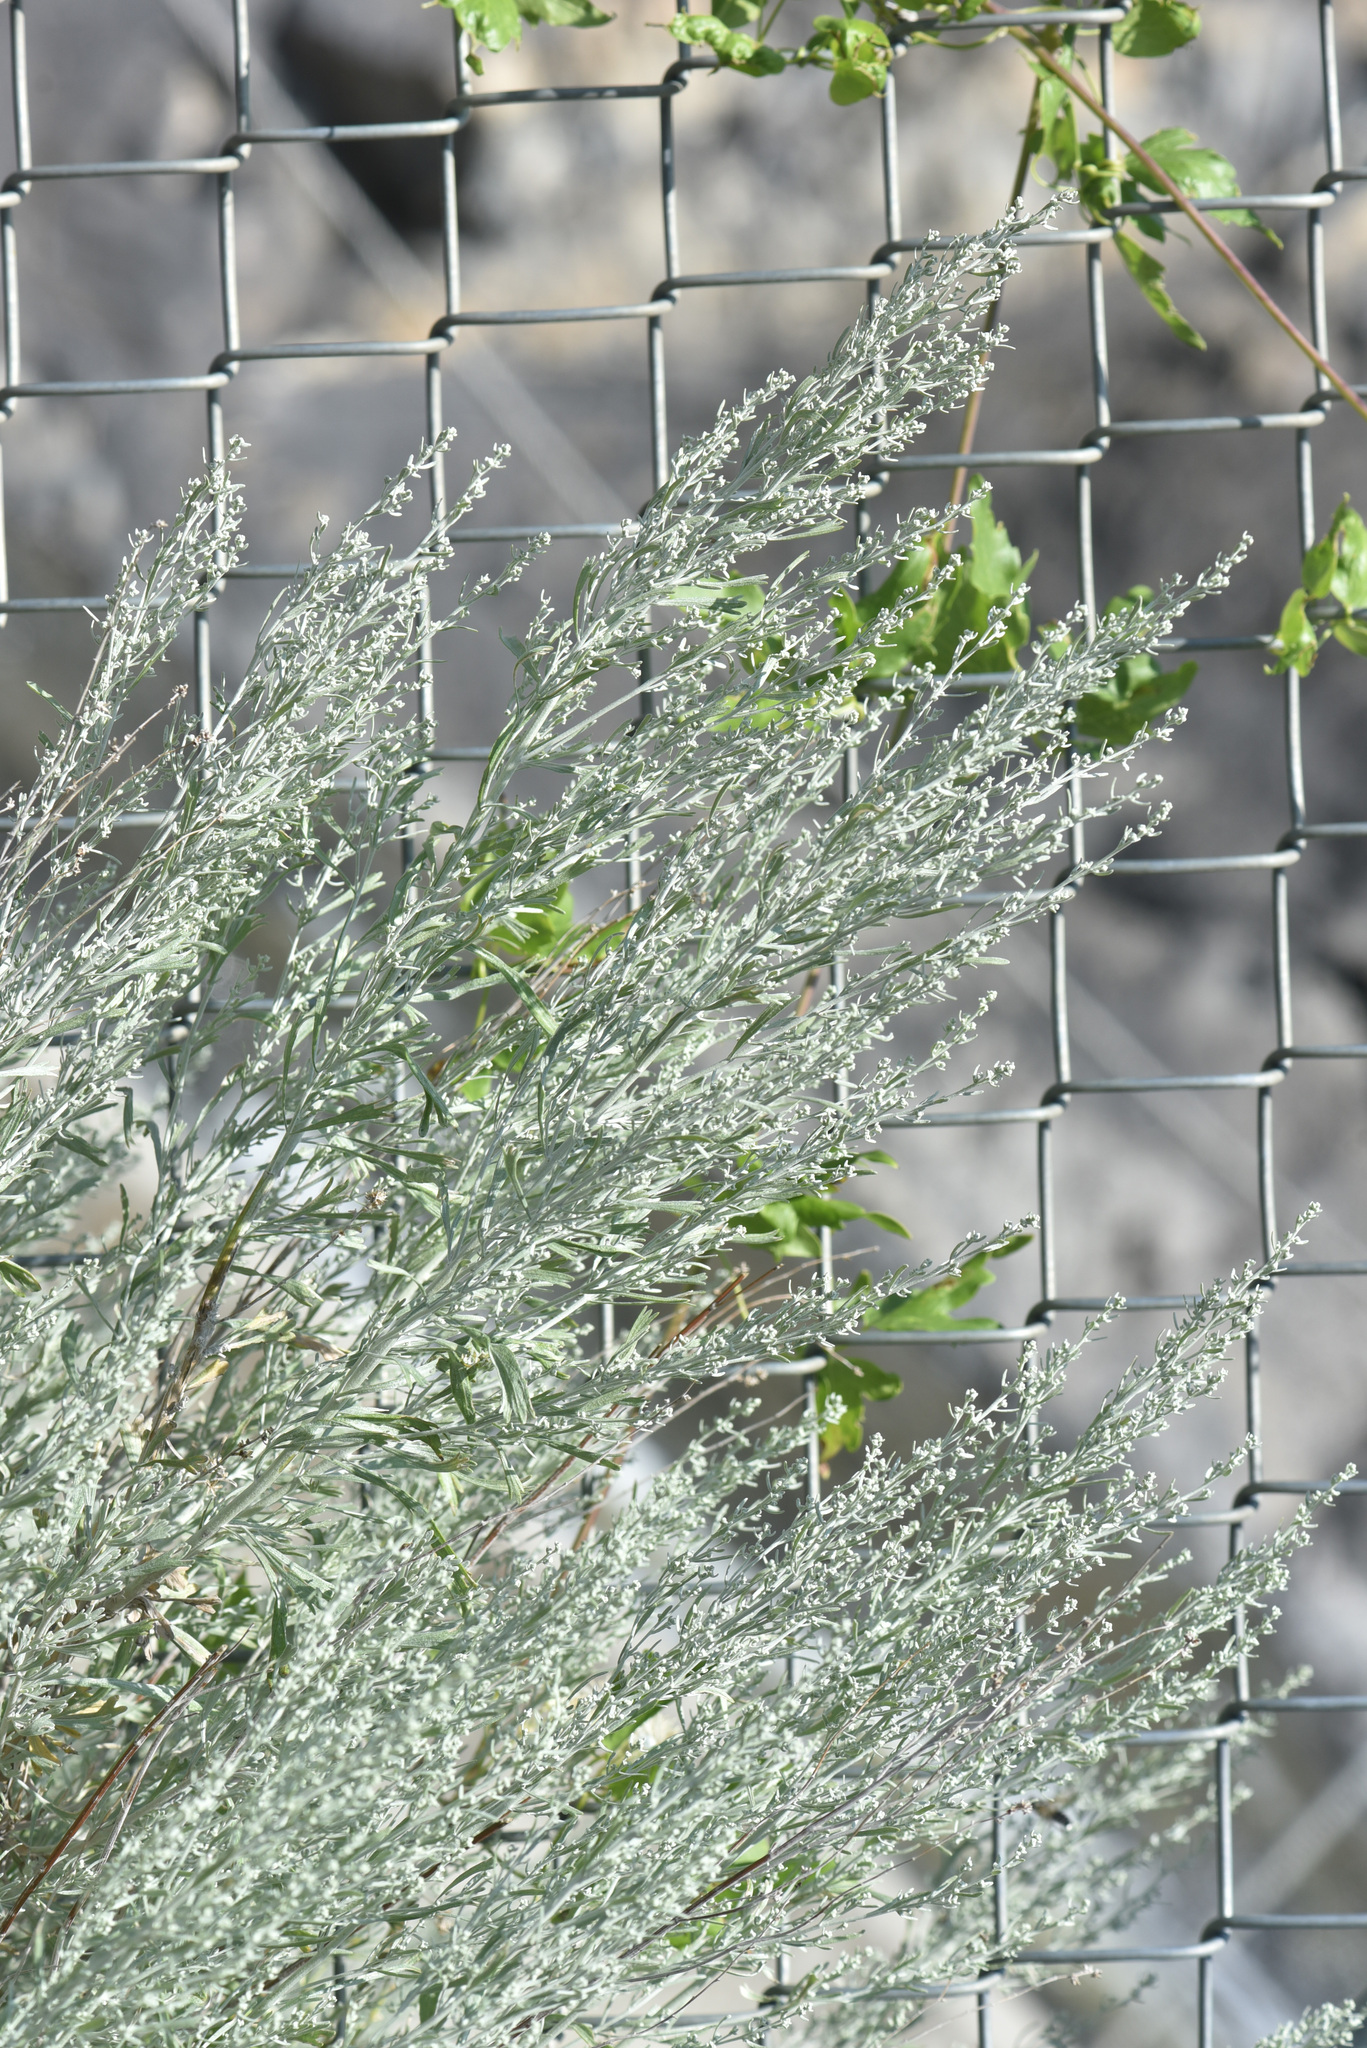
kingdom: Plantae
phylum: Tracheophyta
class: Magnoliopsida
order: Asterales
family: Asteraceae
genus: Artemisia
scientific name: Artemisia tridentata
